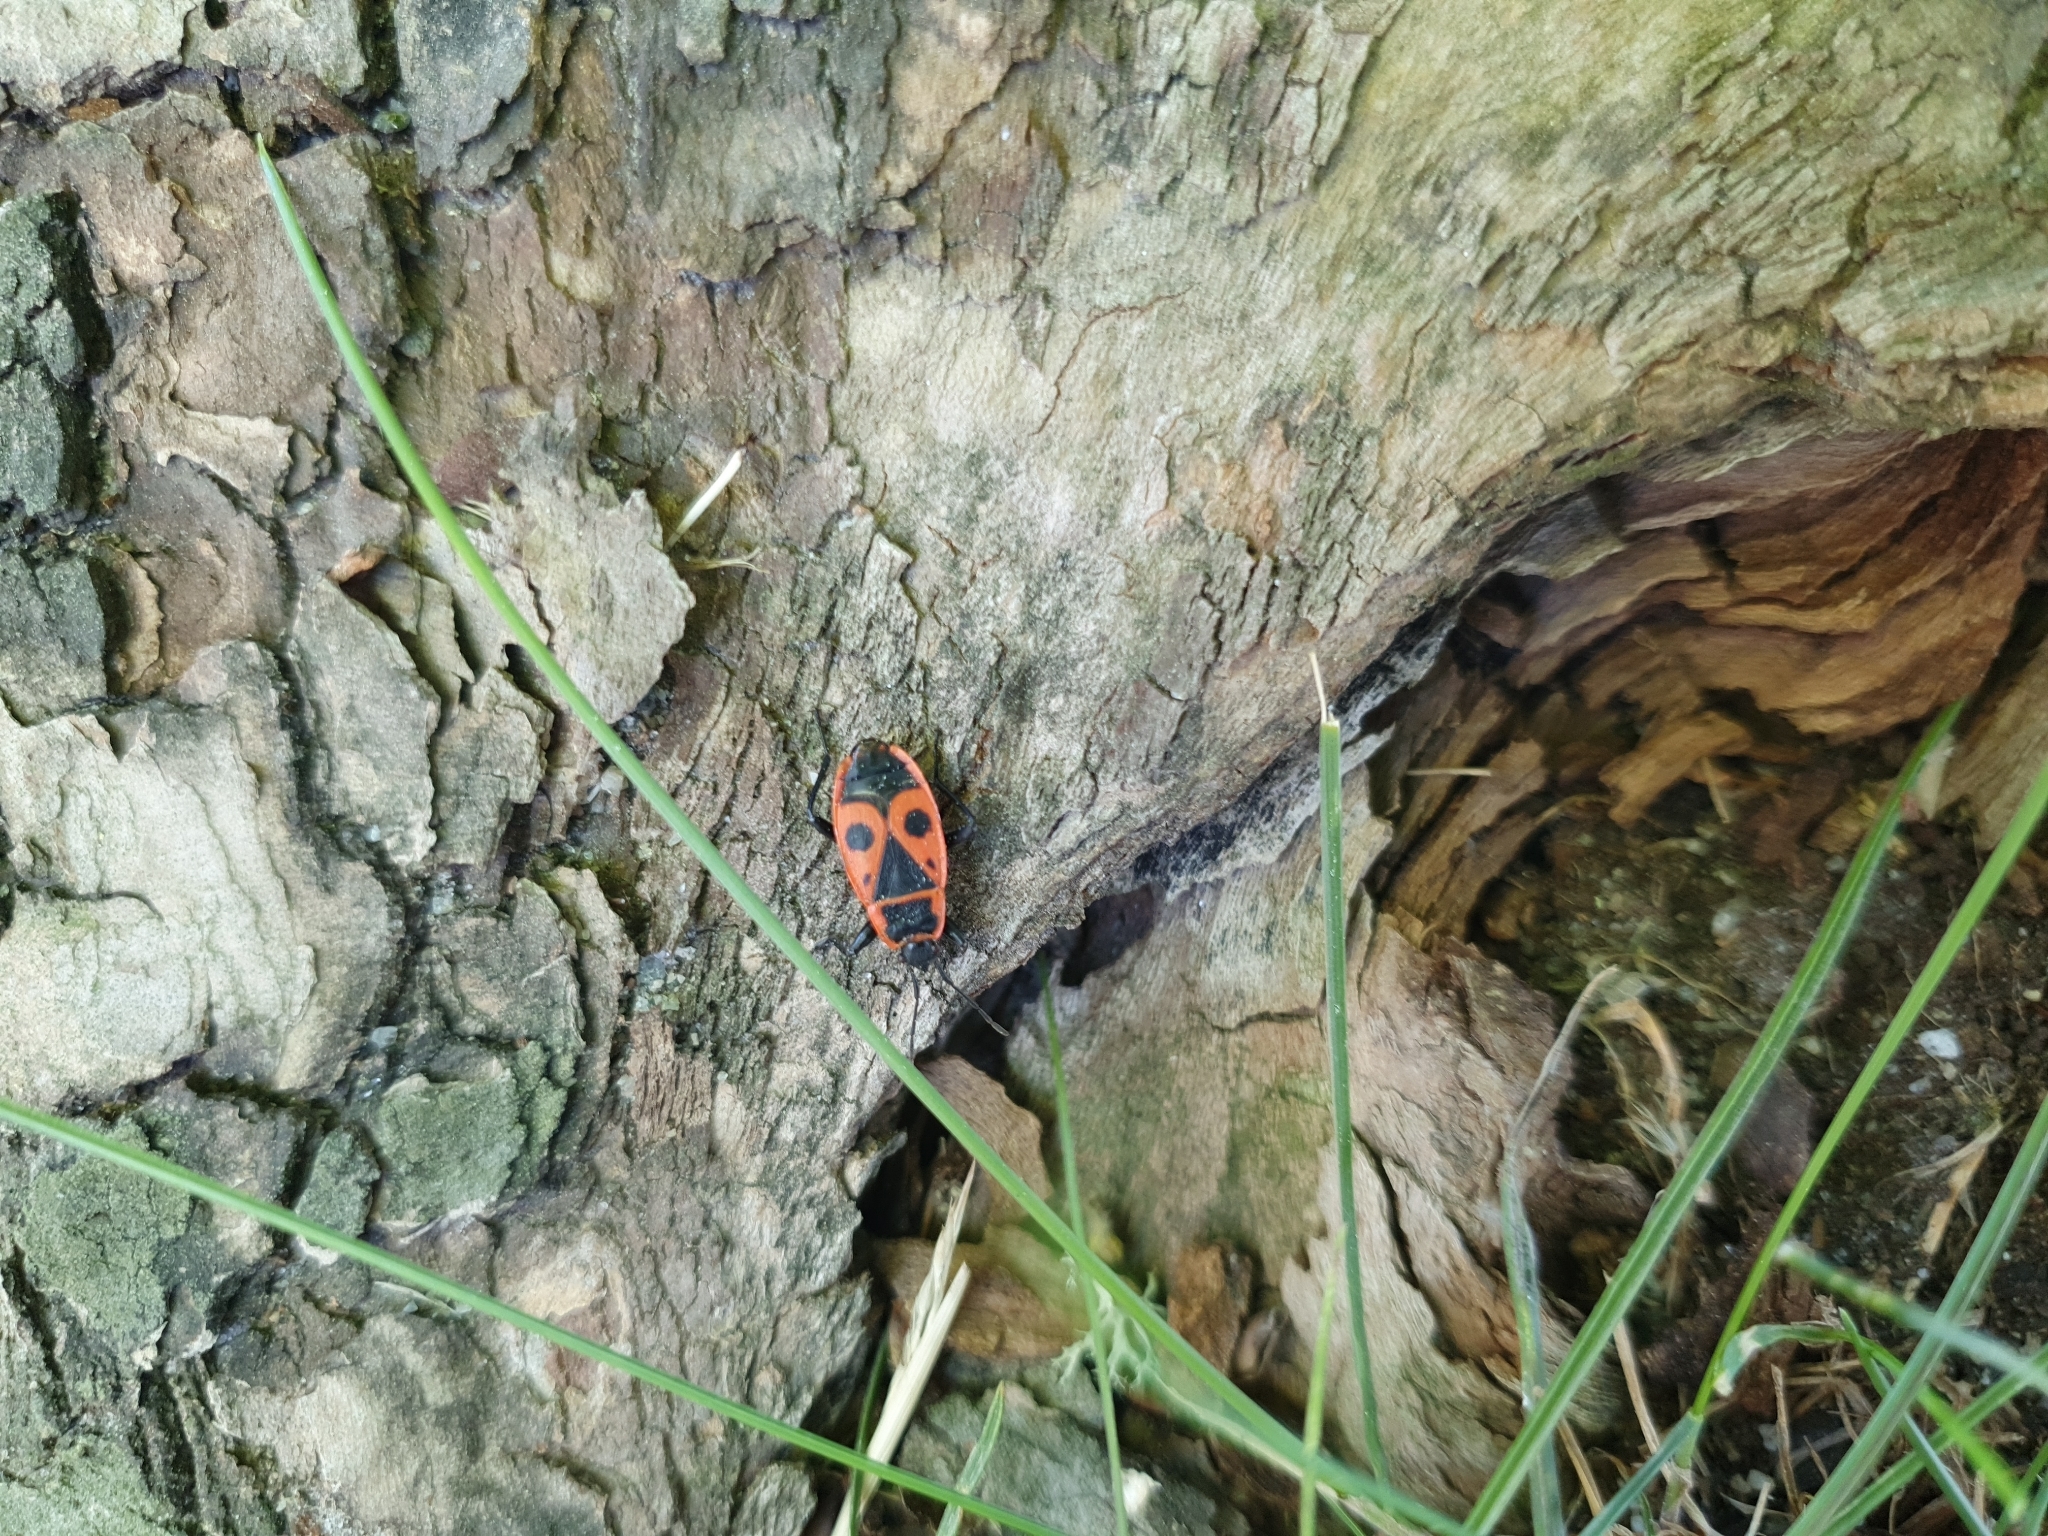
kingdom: Animalia
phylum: Arthropoda
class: Insecta
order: Hemiptera
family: Pyrrhocoridae
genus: Pyrrhocoris
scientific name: Pyrrhocoris apterus
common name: Firebug
